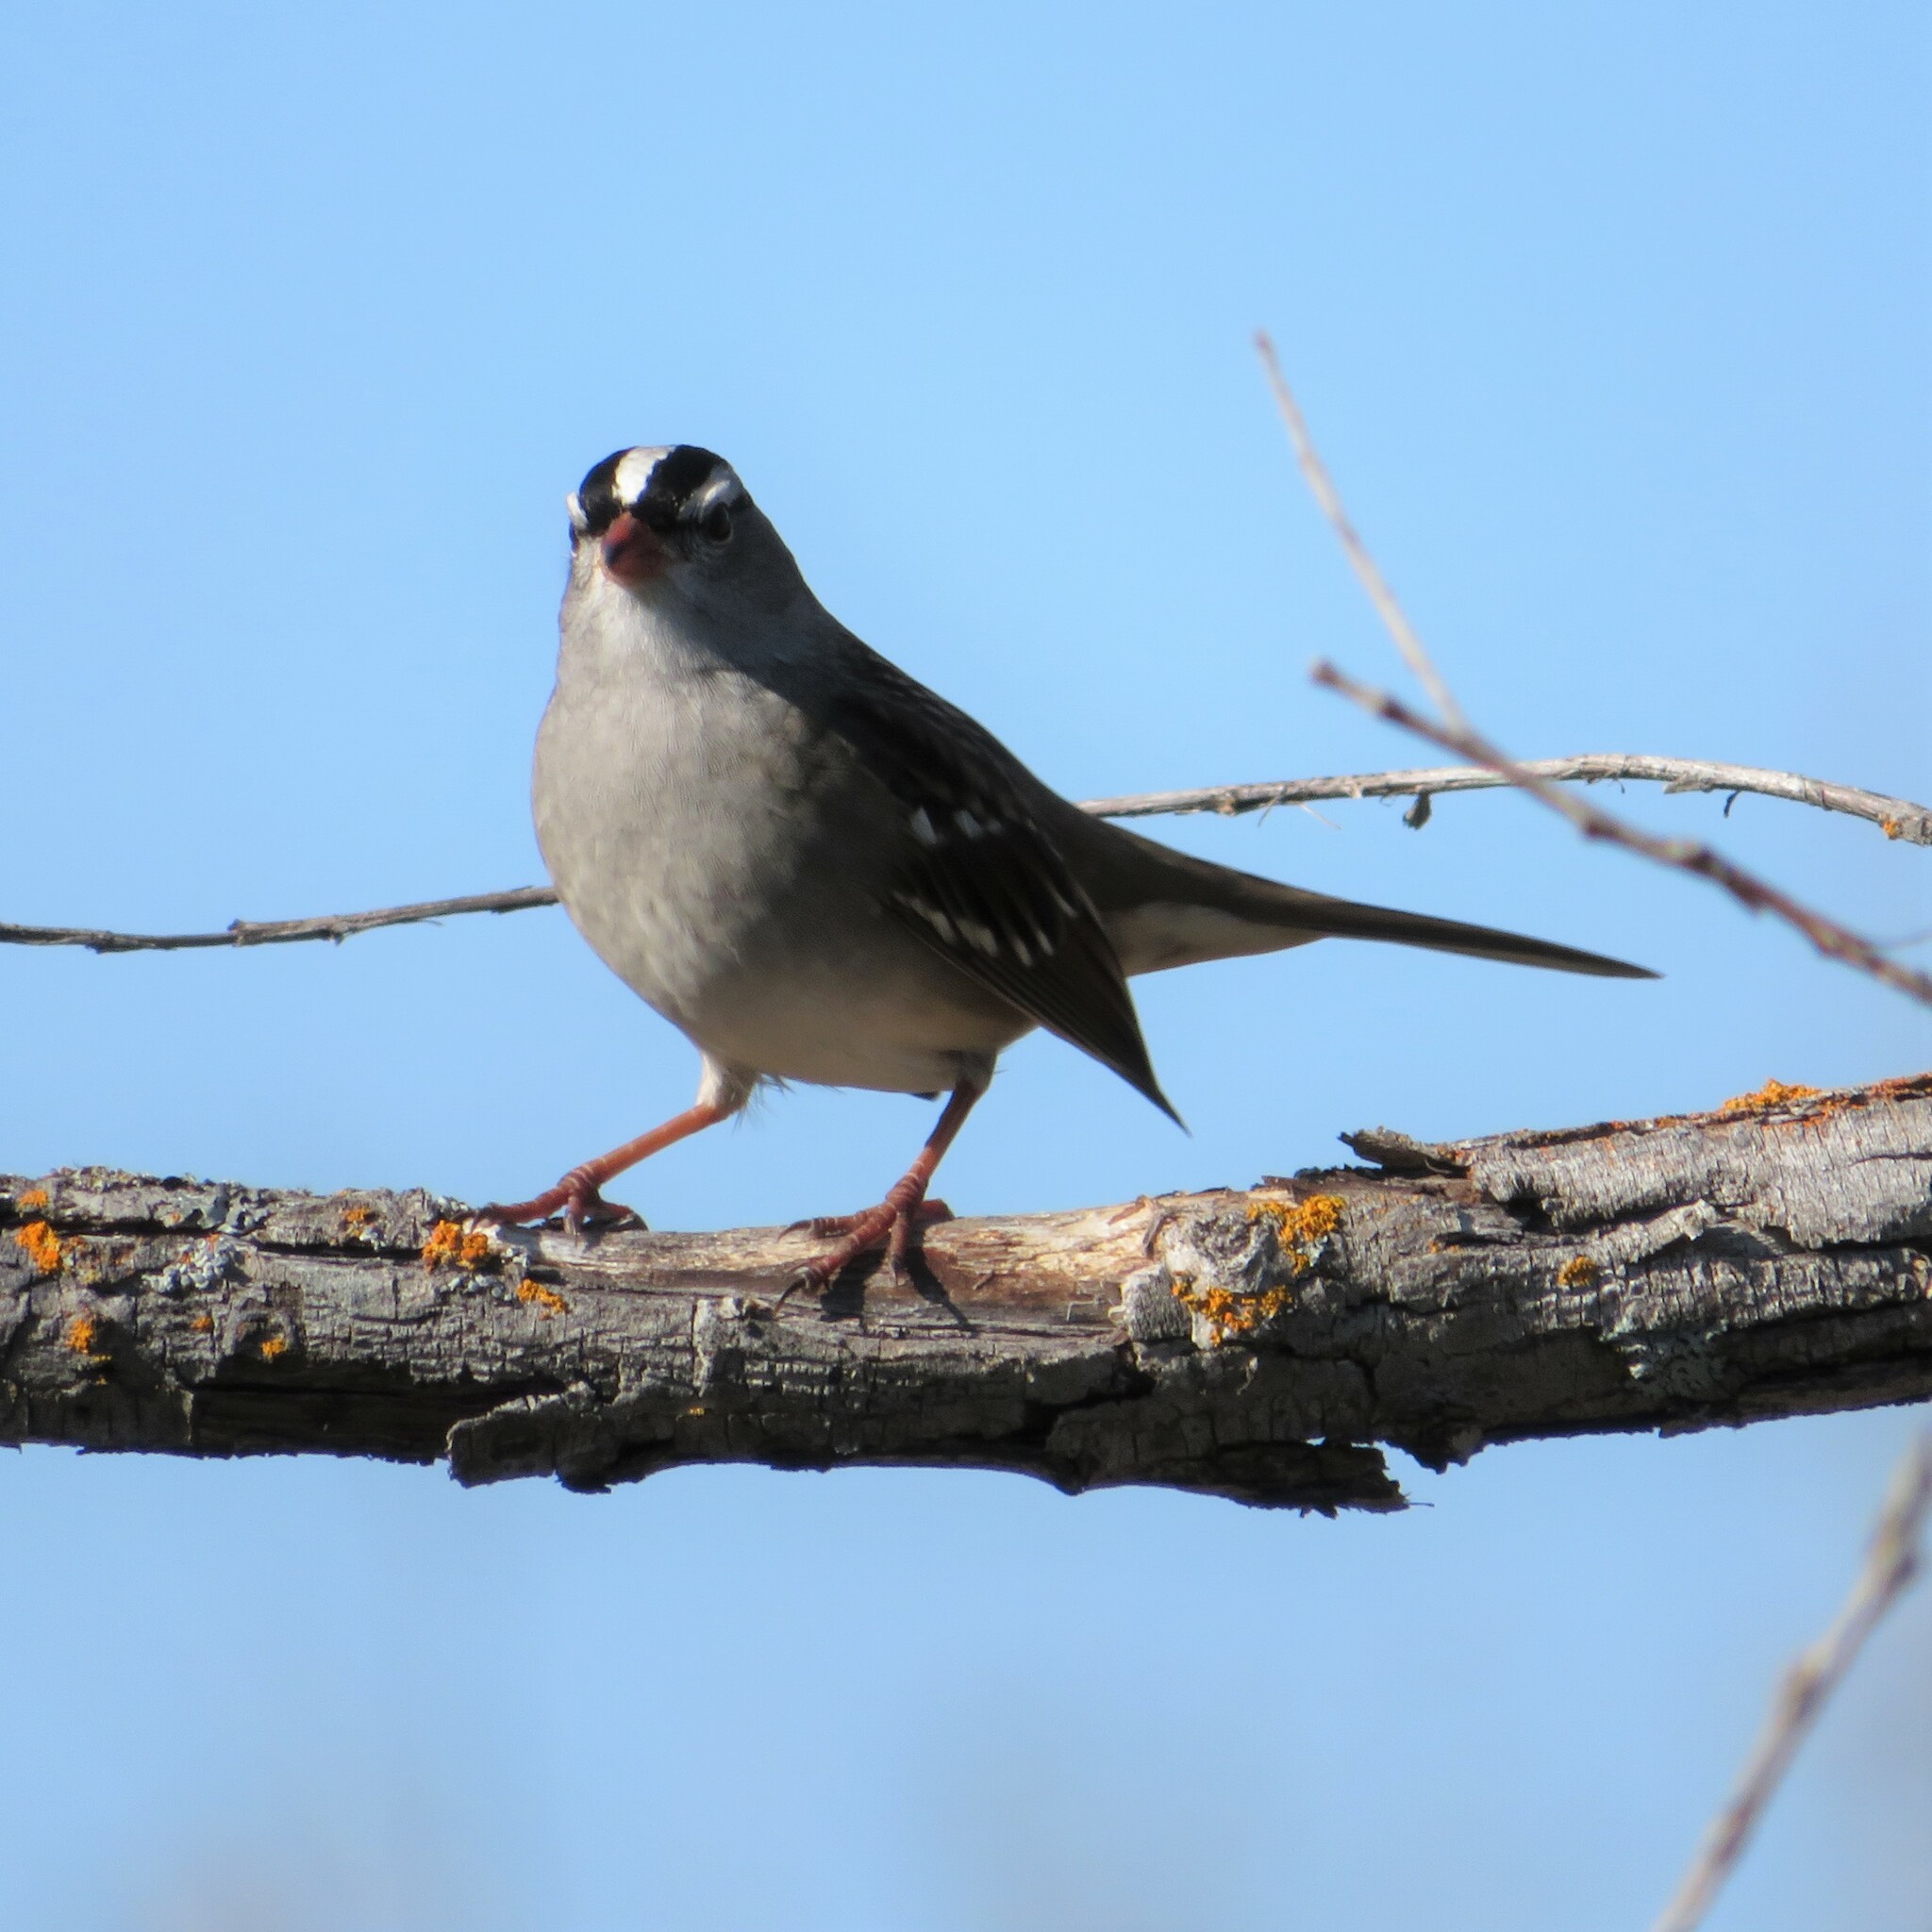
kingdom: Animalia
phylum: Chordata
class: Aves
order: Passeriformes
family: Passerellidae
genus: Zonotrichia
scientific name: Zonotrichia leucophrys
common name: White-crowned sparrow
